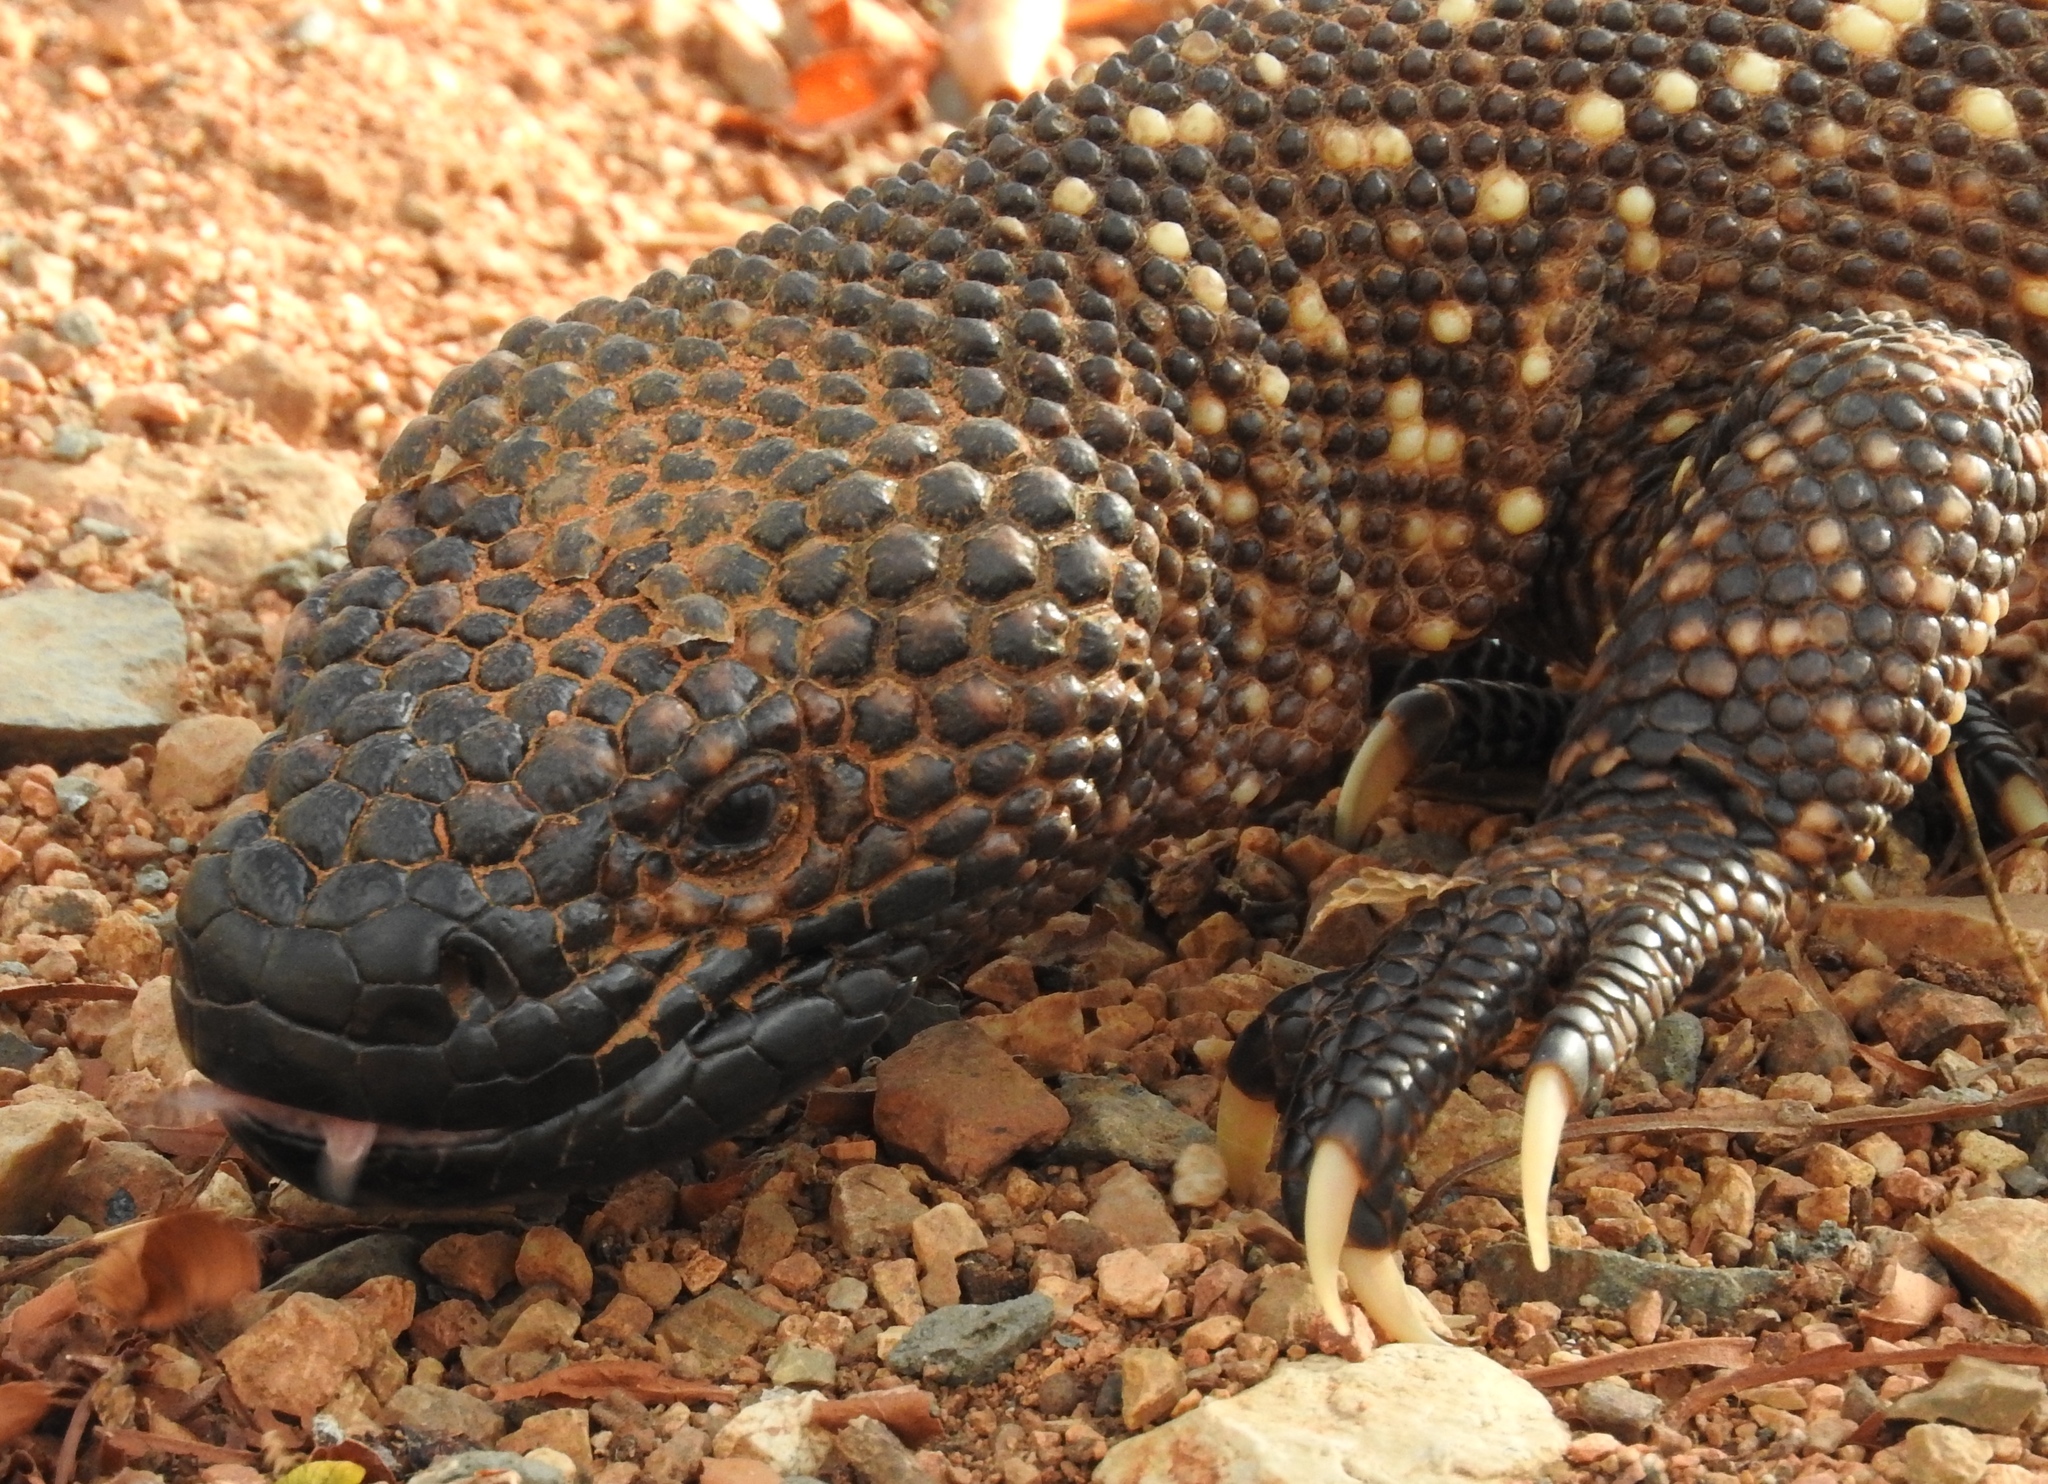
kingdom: Animalia
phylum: Chordata
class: Squamata
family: Helodermatidae
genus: Heloderma
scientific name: Heloderma horridum
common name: Mexican beaded lizard
